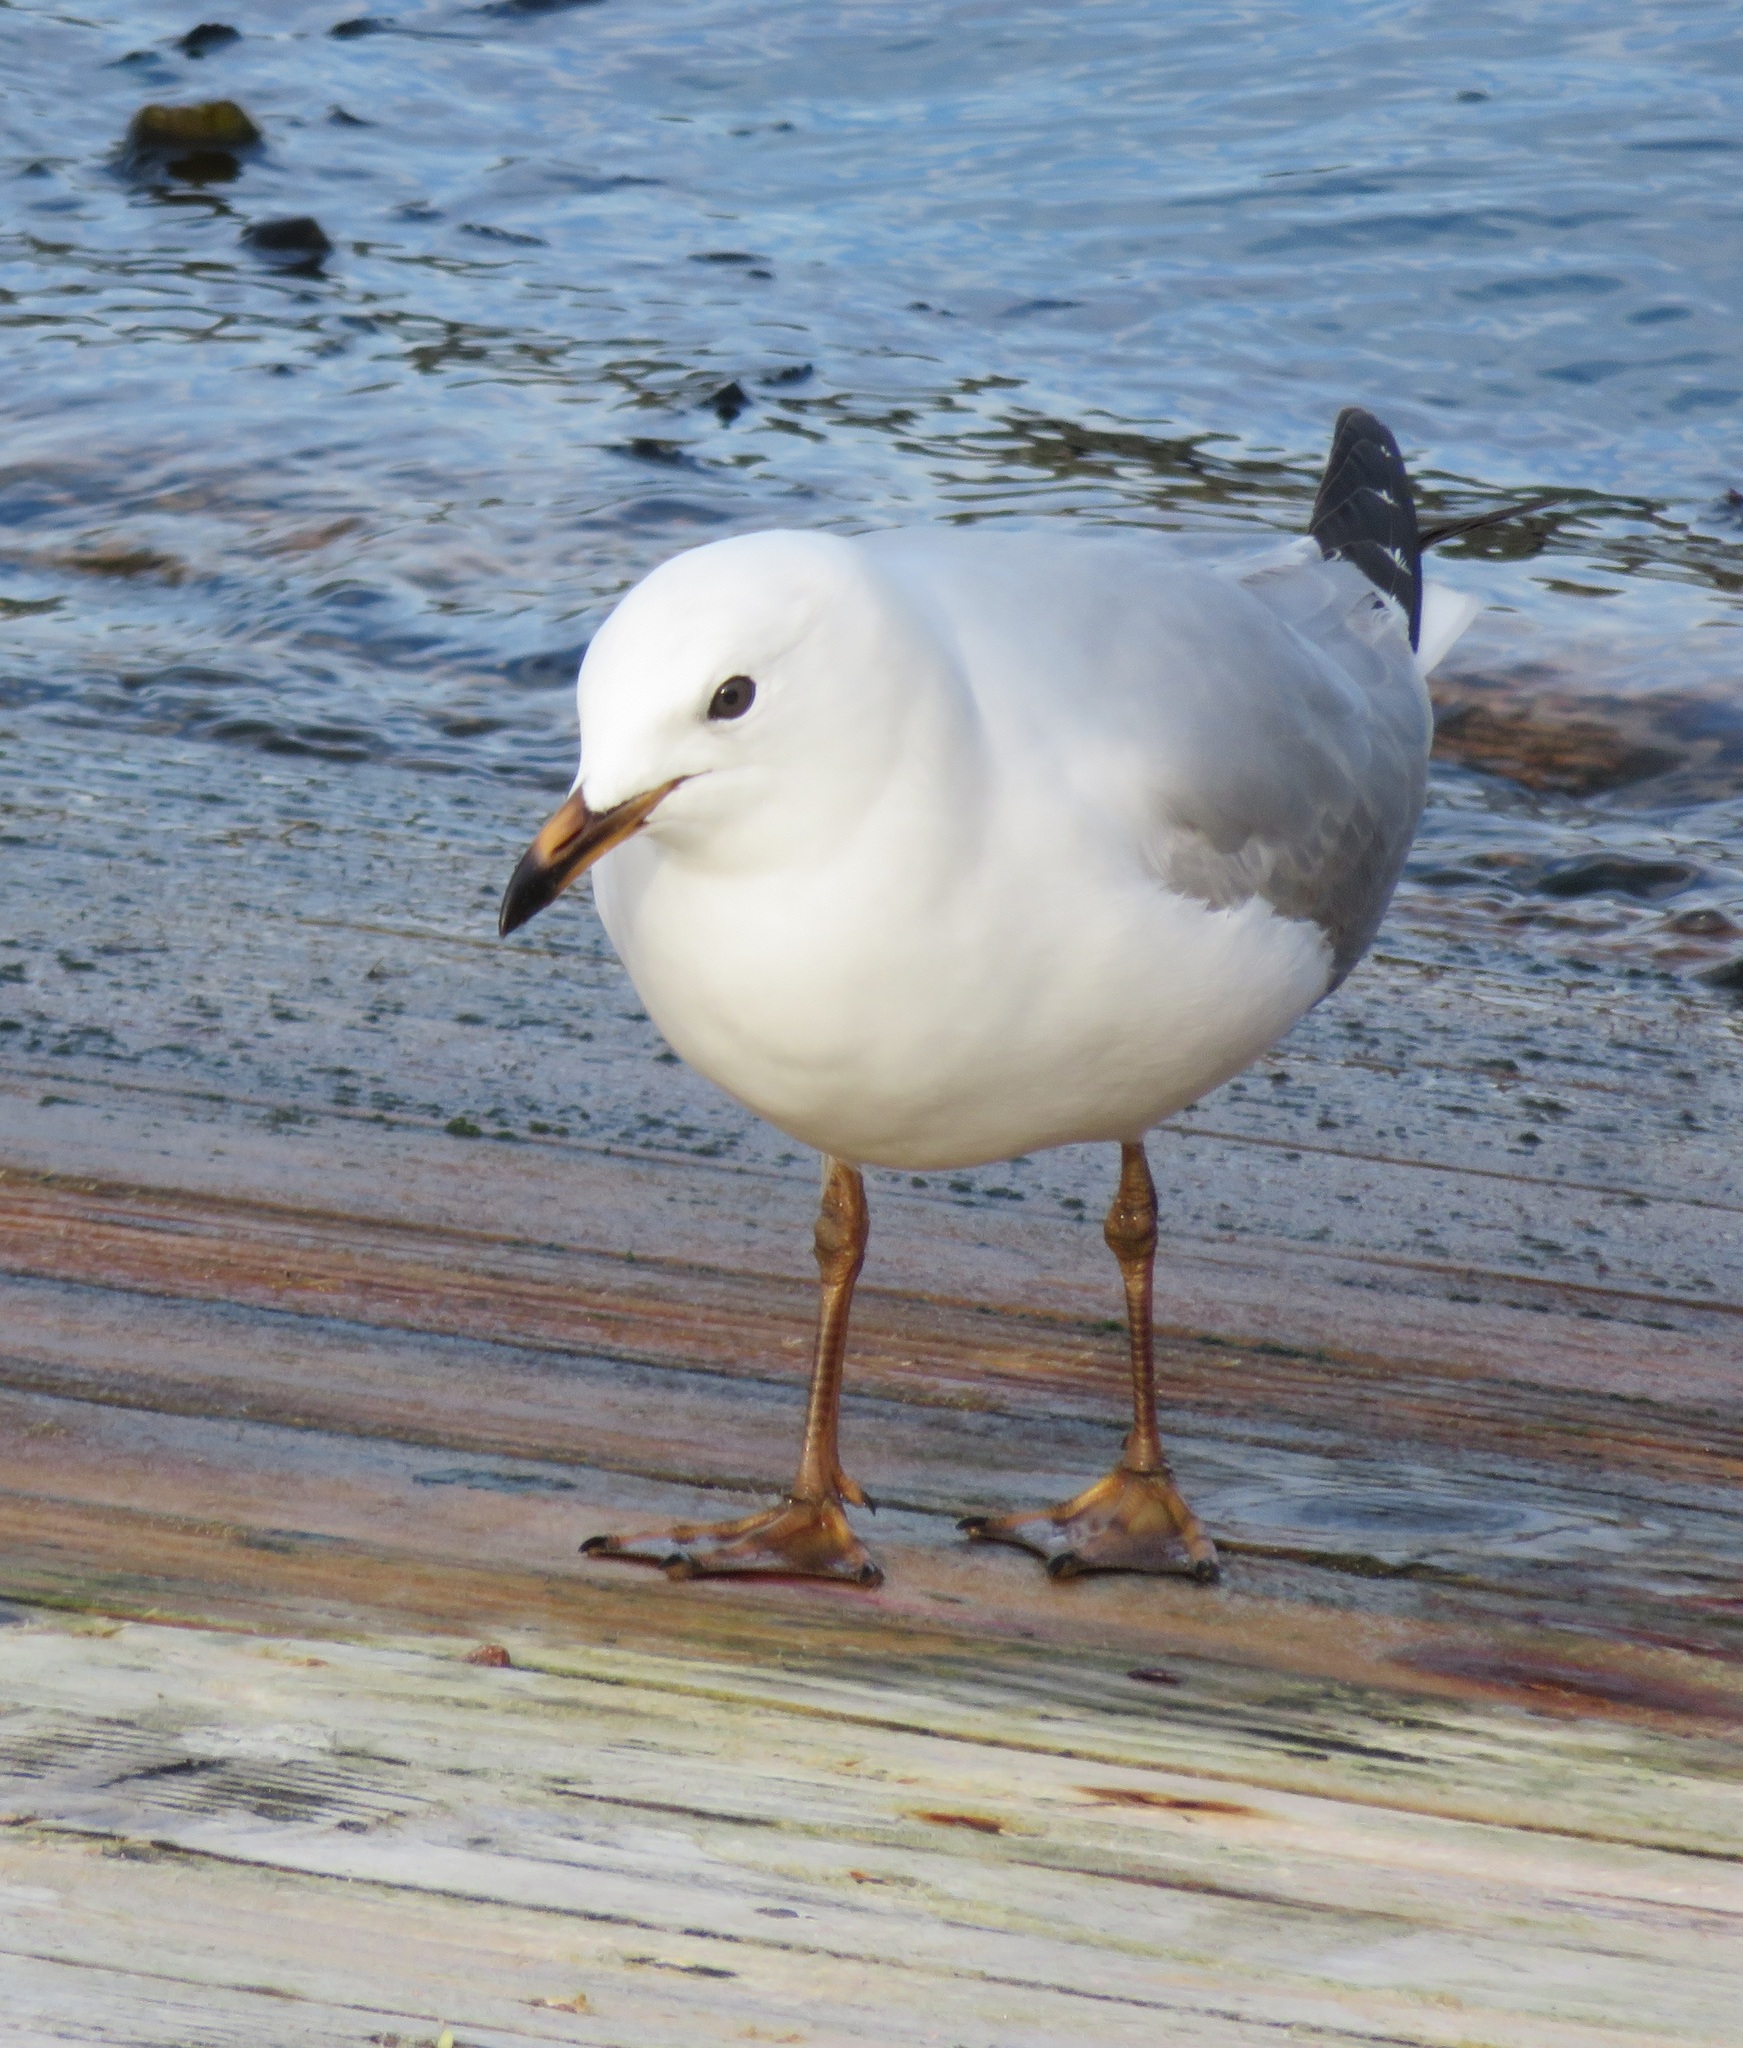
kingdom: Animalia
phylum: Chordata
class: Aves
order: Charadriiformes
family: Laridae
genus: Chroicocephalus
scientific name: Chroicocephalus novaehollandiae
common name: Silver gull
